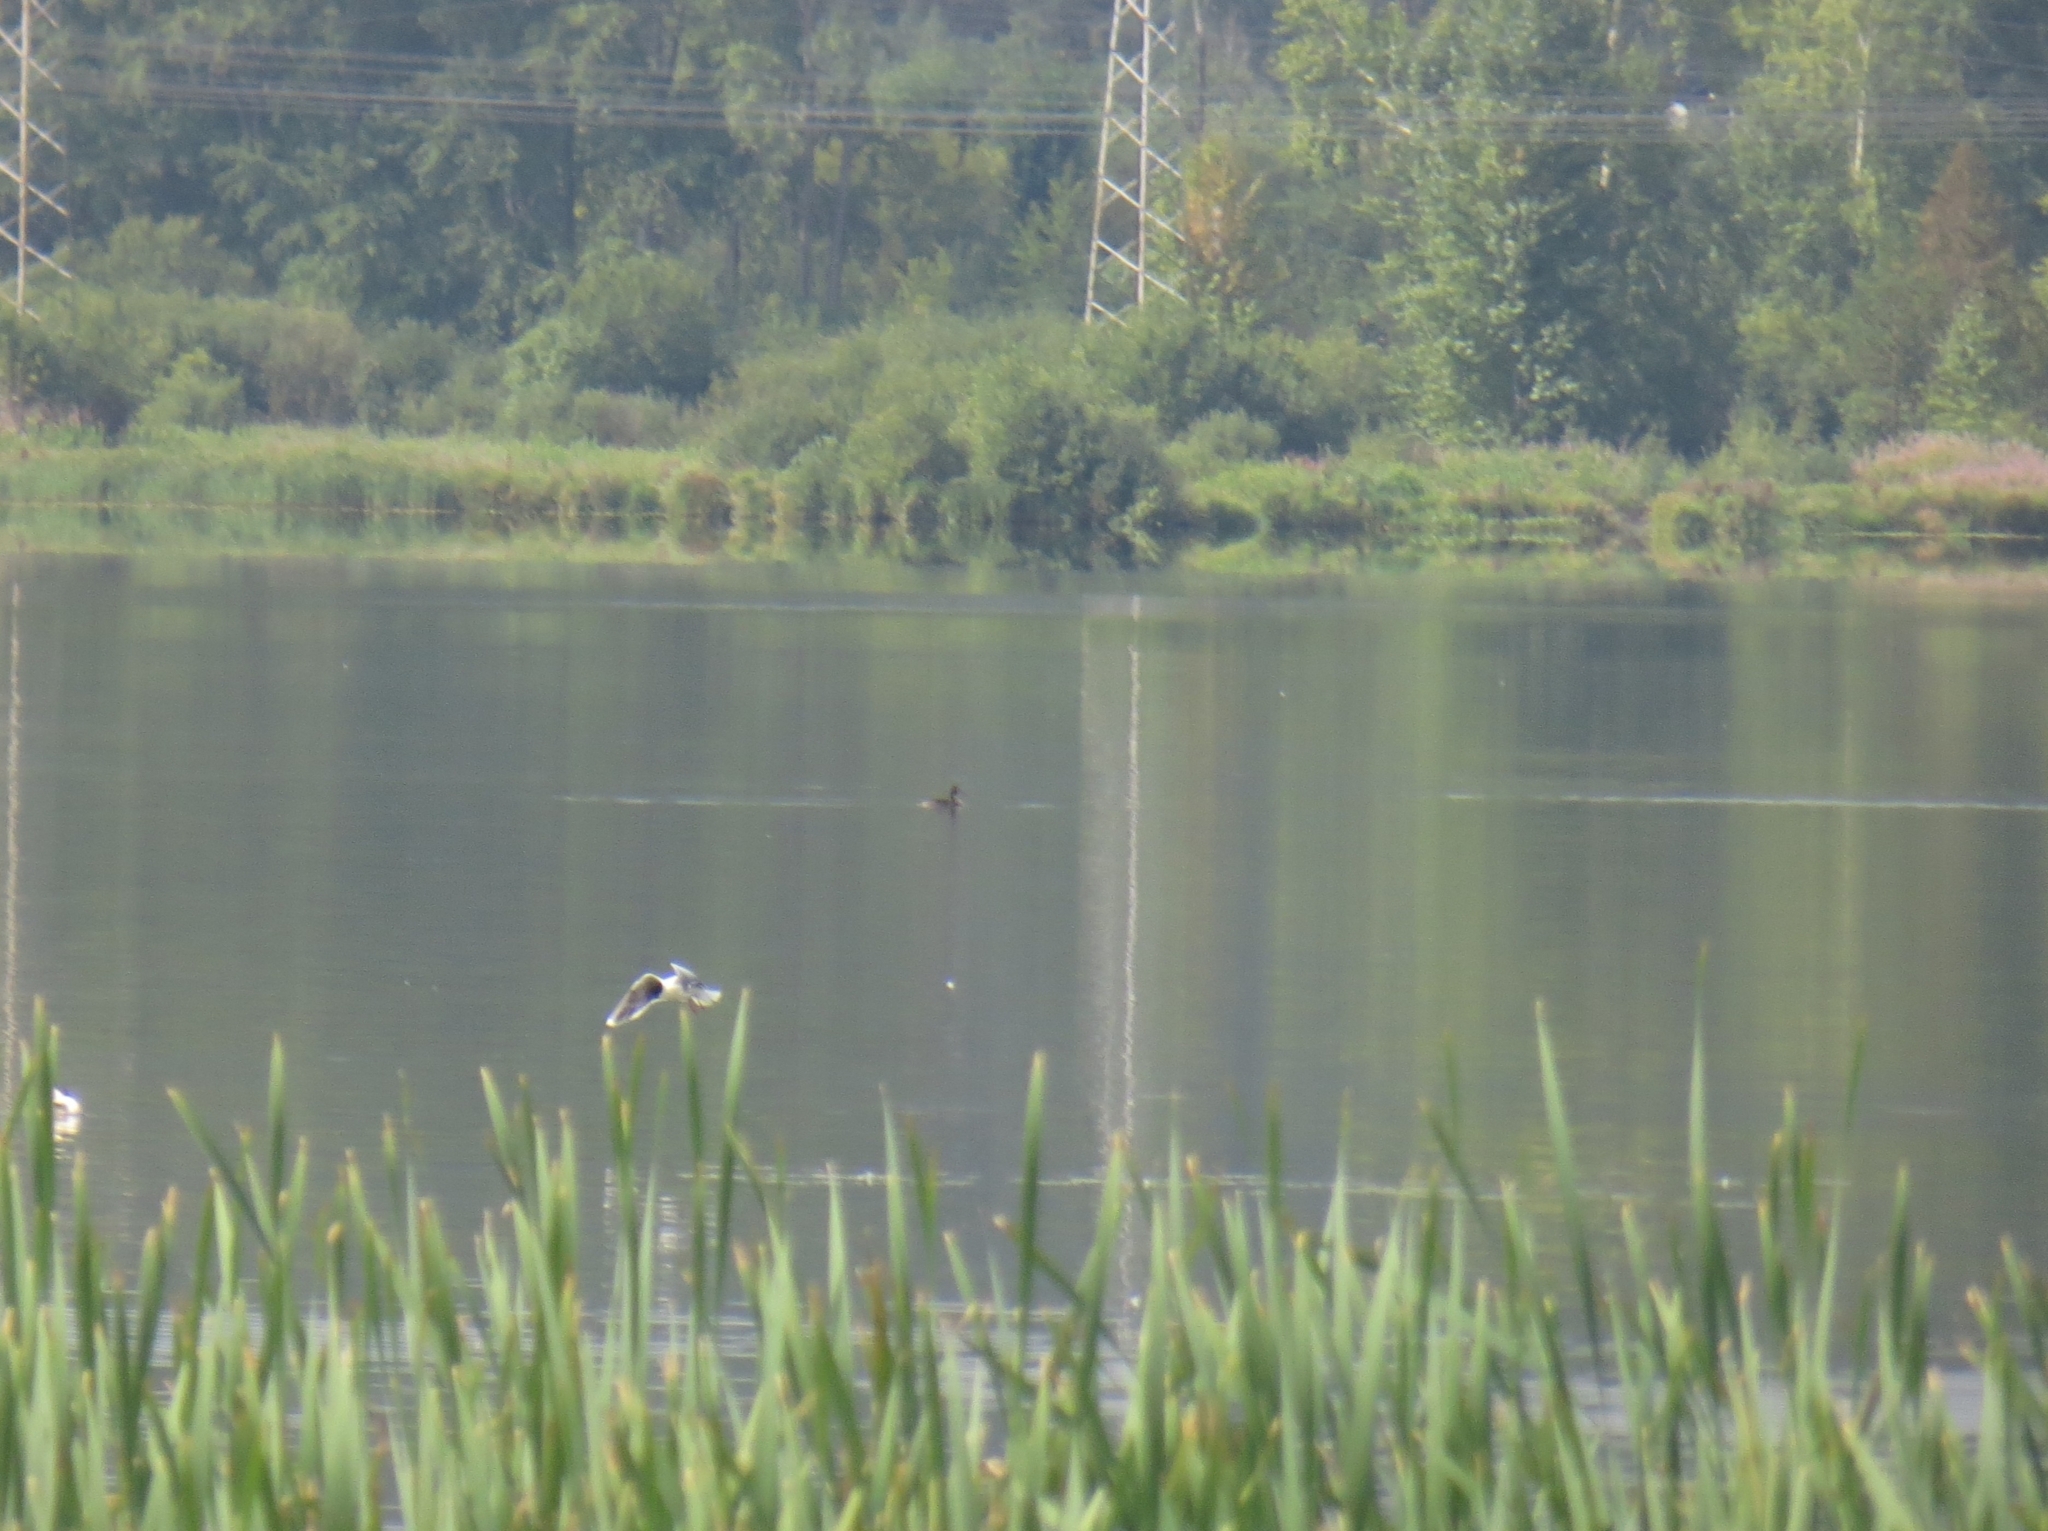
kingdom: Animalia
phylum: Chordata
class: Aves
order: Charadriiformes
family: Laridae
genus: Hydrocoloeus
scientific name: Hydrocoloeus minutus
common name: Little gull
